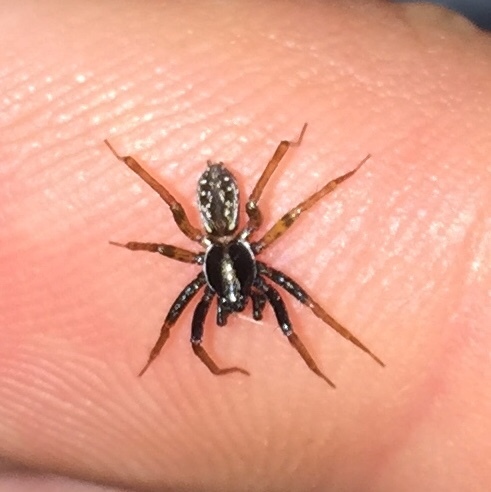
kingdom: Animalia
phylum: Arthropoda
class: Arachnida
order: Araneae
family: Lycosidae
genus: Pirata
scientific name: Pirata montanus
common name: Dark-legged pirate wolf spider
